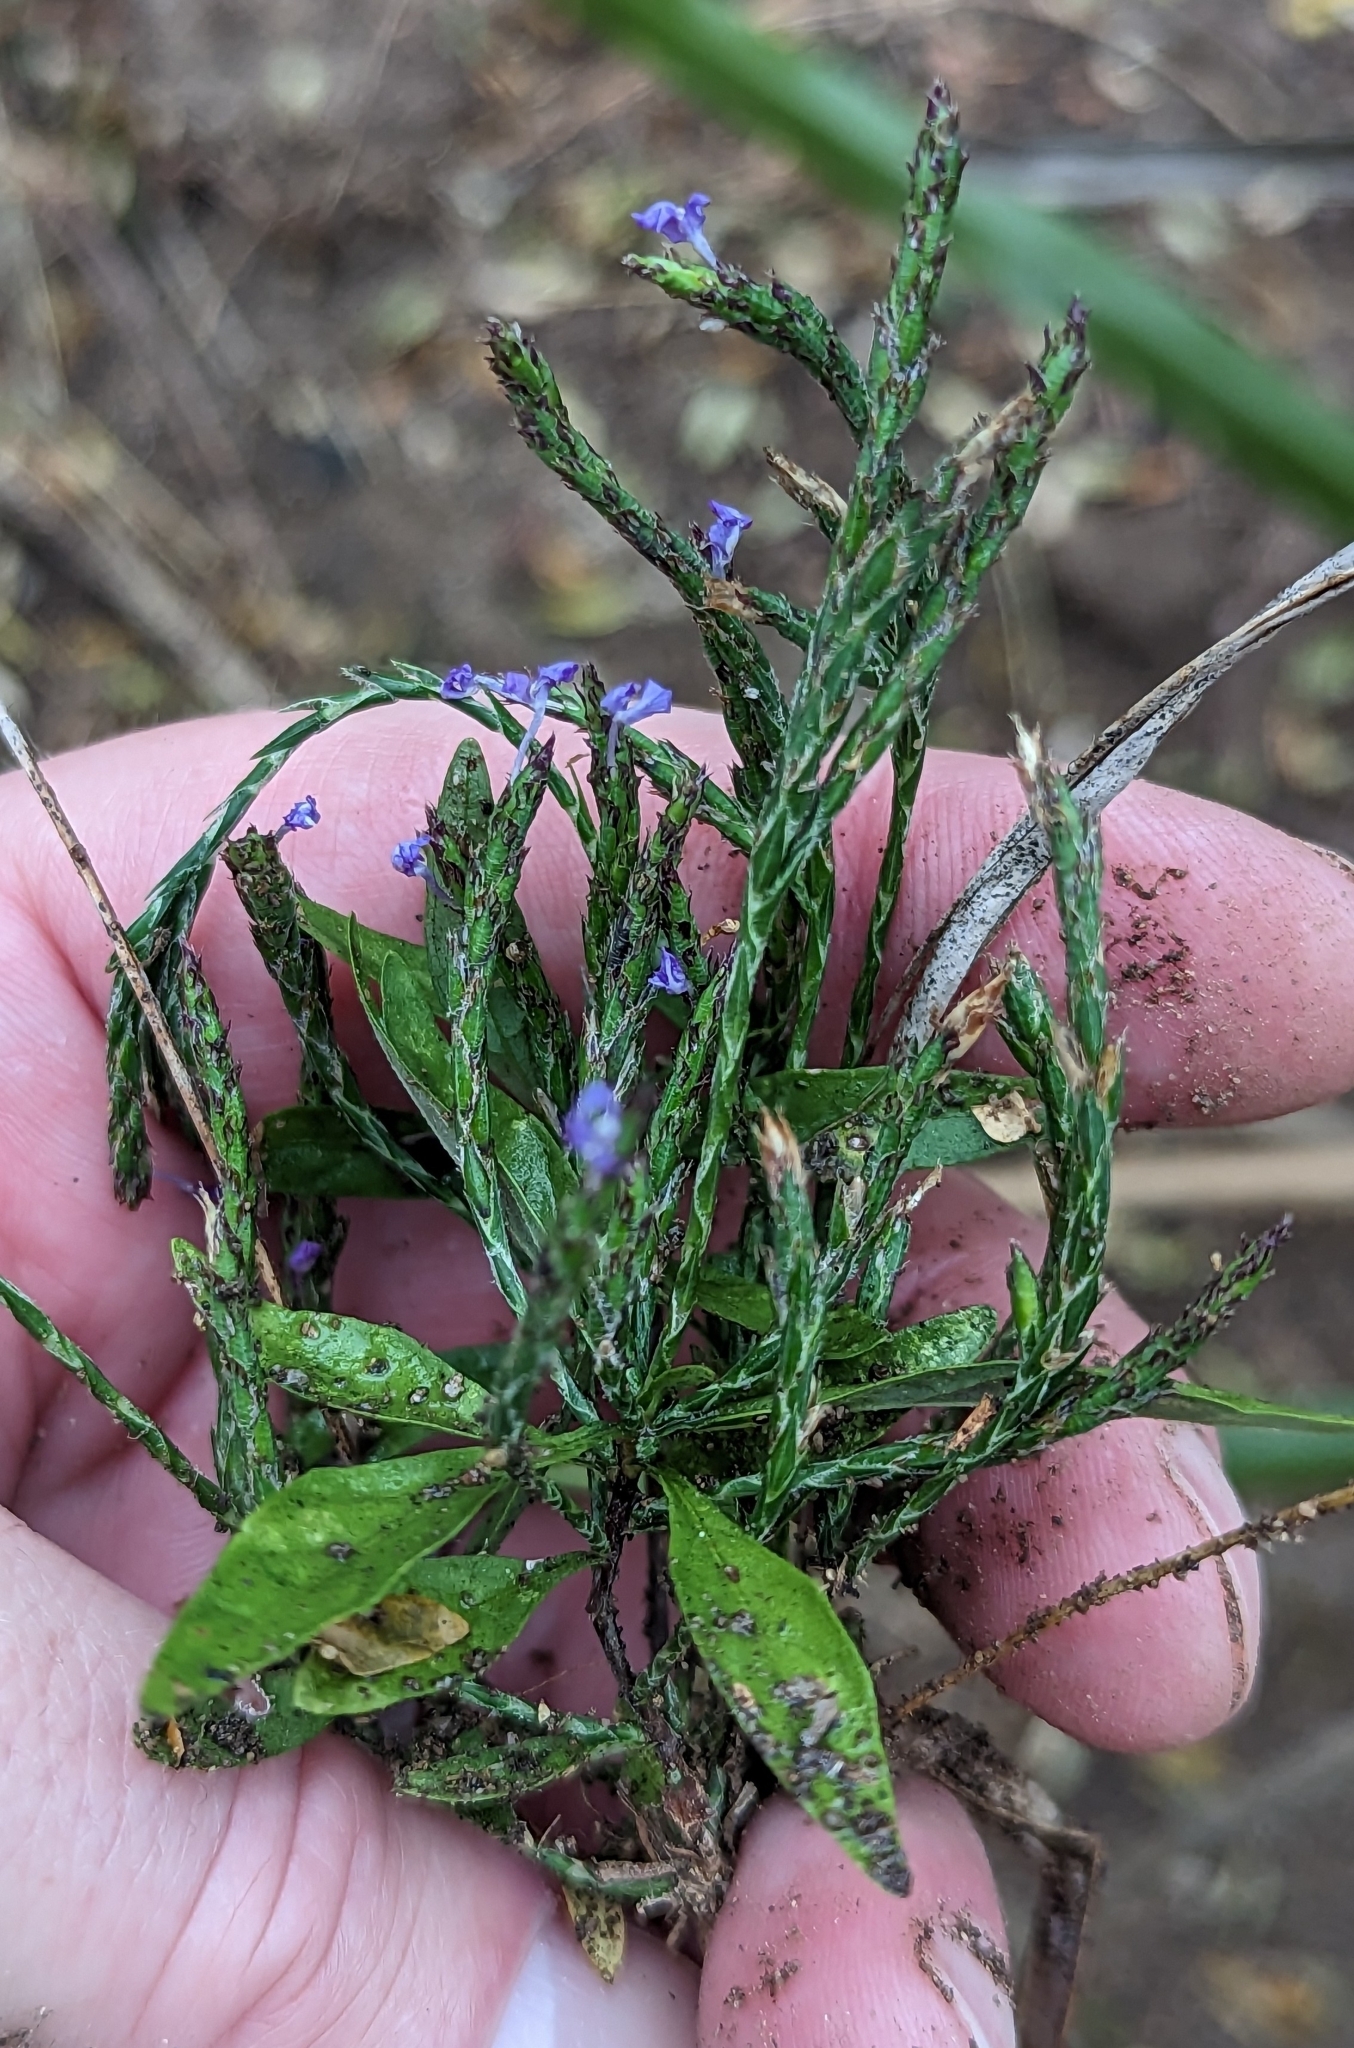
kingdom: Plantae
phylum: Tracheophyta
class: Magnoliopsida
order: Lamiales
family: Acanthaceae
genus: Elytraria
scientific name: Elytraria imbricata
